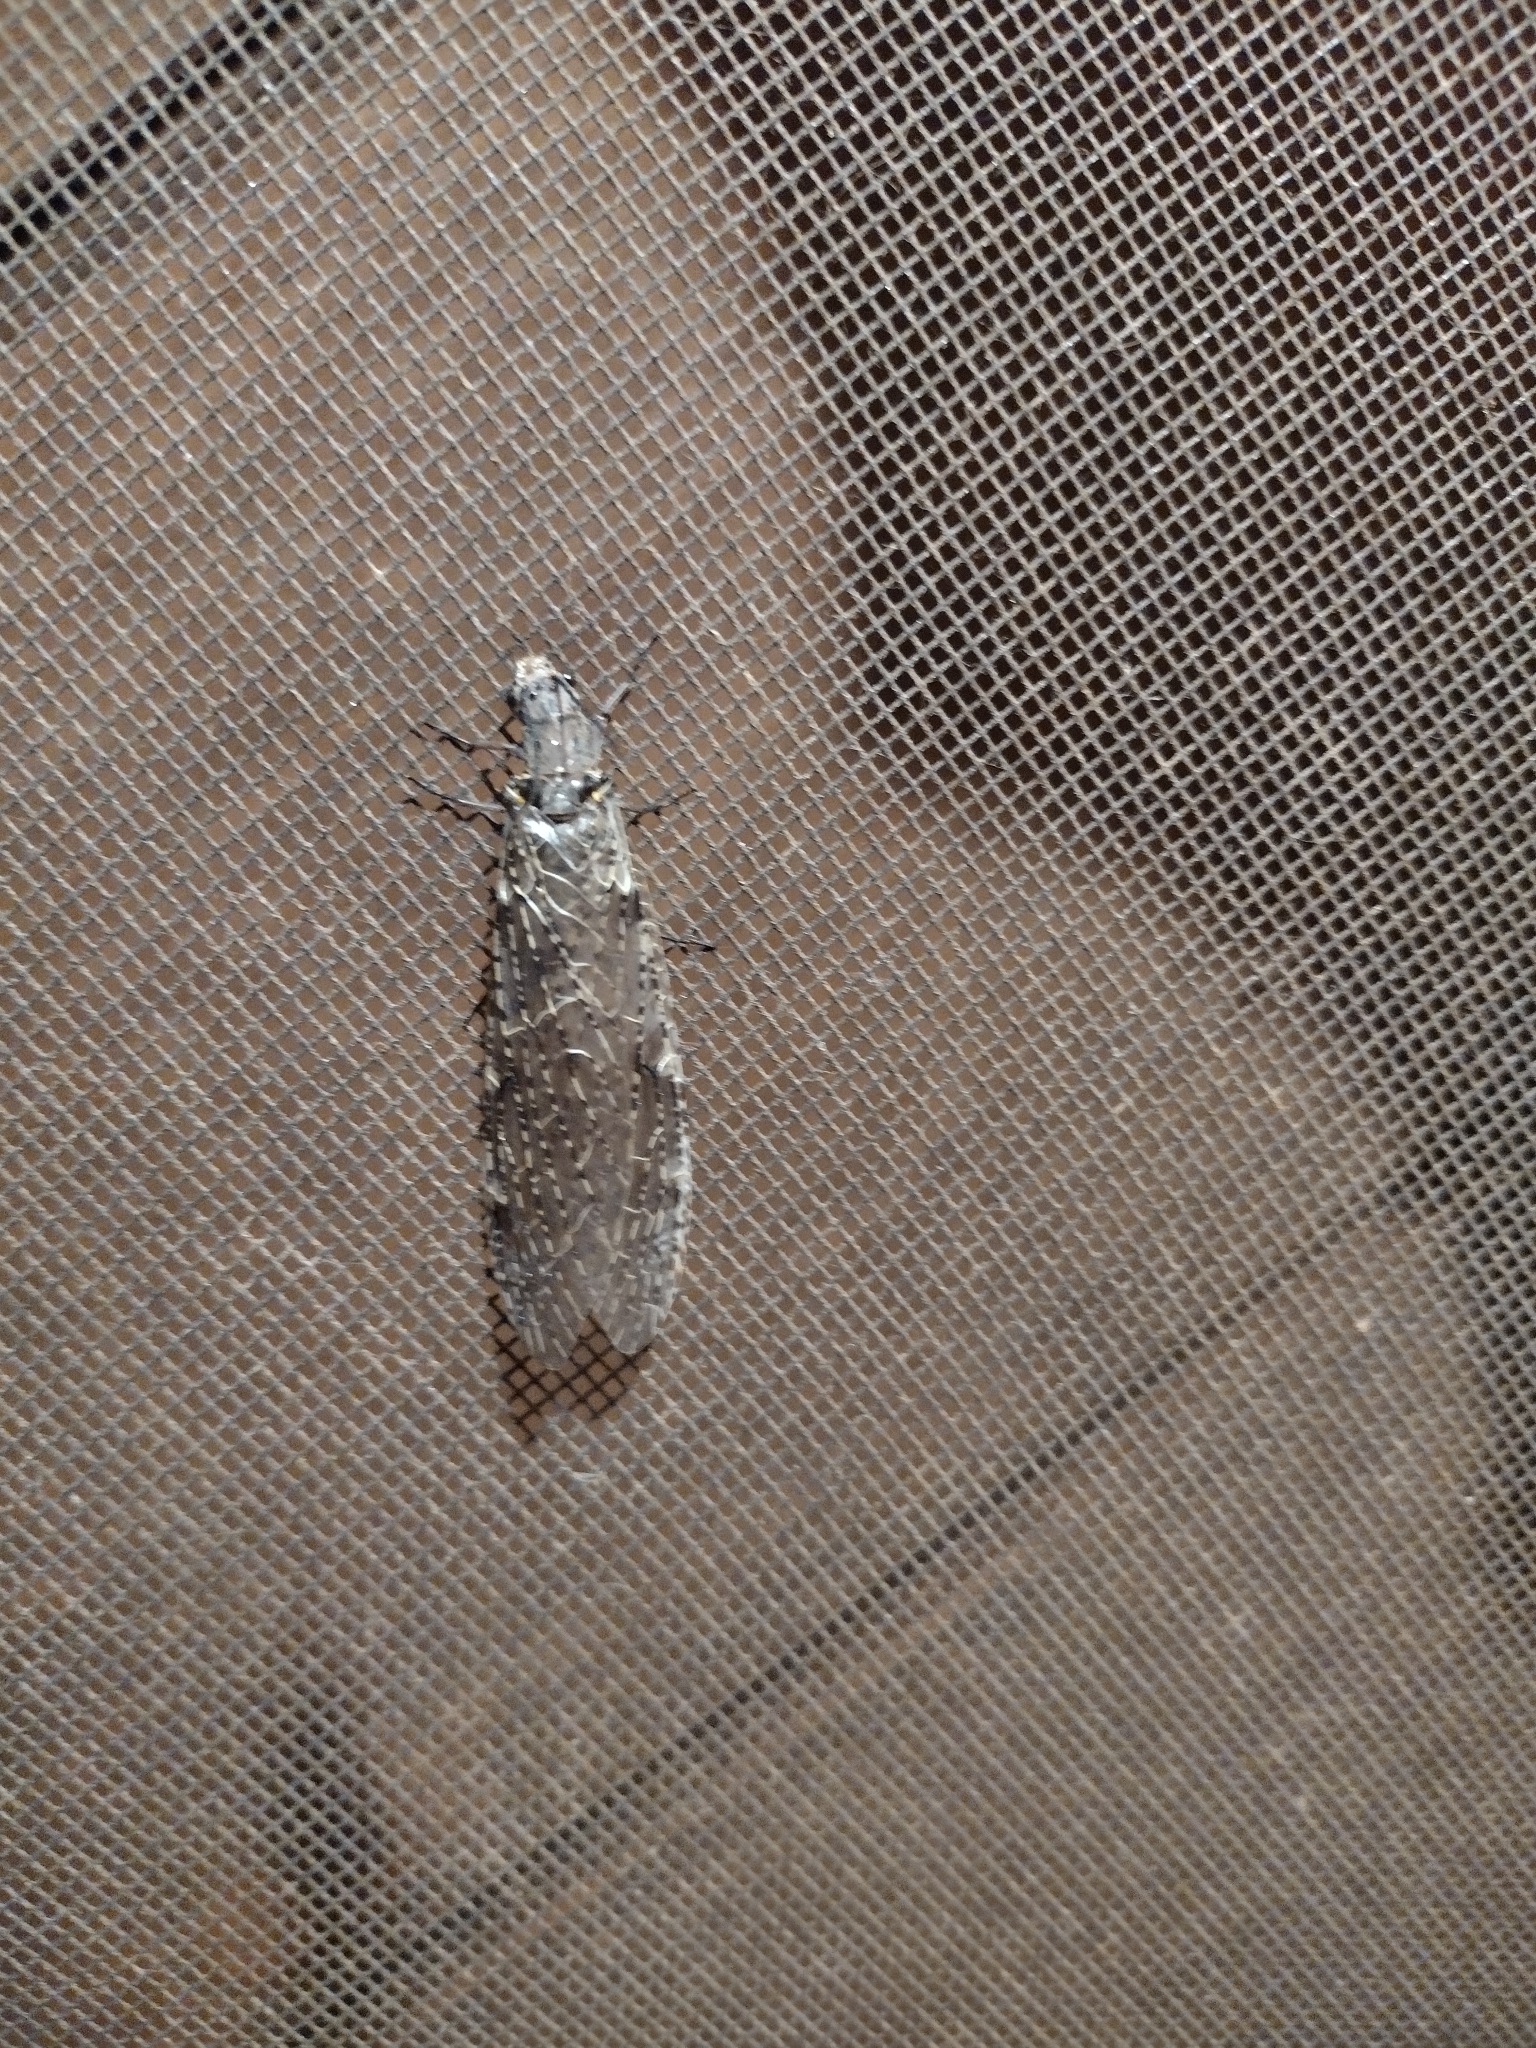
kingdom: Animalia
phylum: Arthropoda
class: Insecta
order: Megaloptera
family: Corydalidae
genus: Chauliodes
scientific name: Chauliodes rastricornis
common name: Spring fishfly
